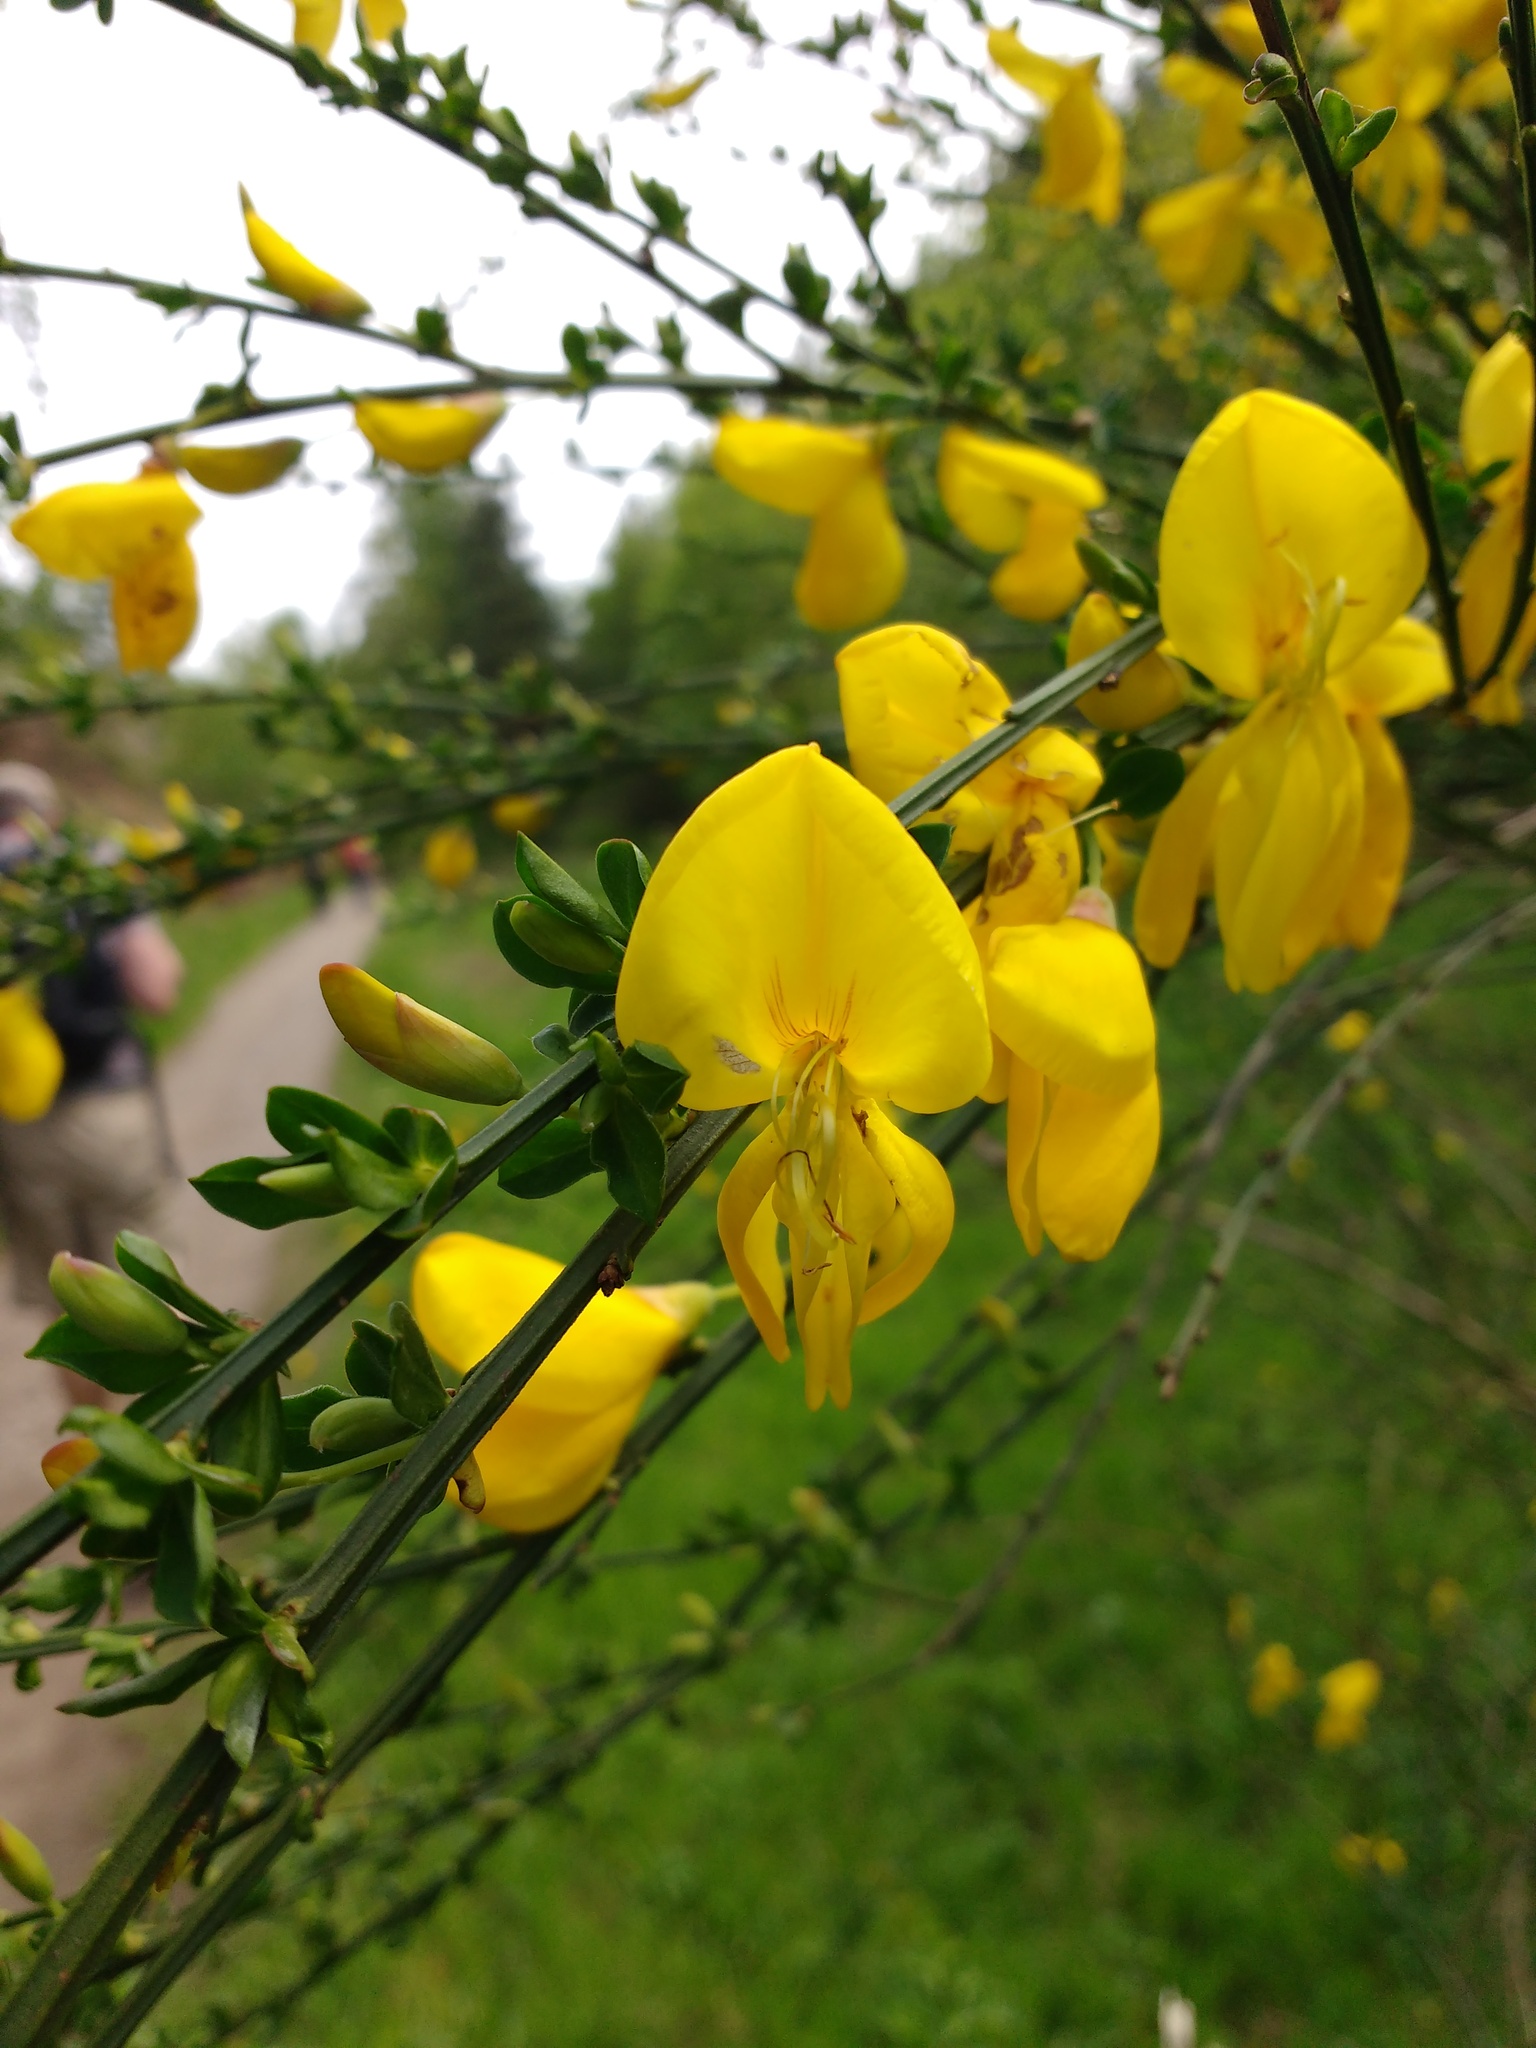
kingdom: Plantae
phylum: Tracheophyta
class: Magnoliopsida
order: Fabales
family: Fabaceae
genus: Cytisus
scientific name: Cytisus scoparius
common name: Scotch broom
